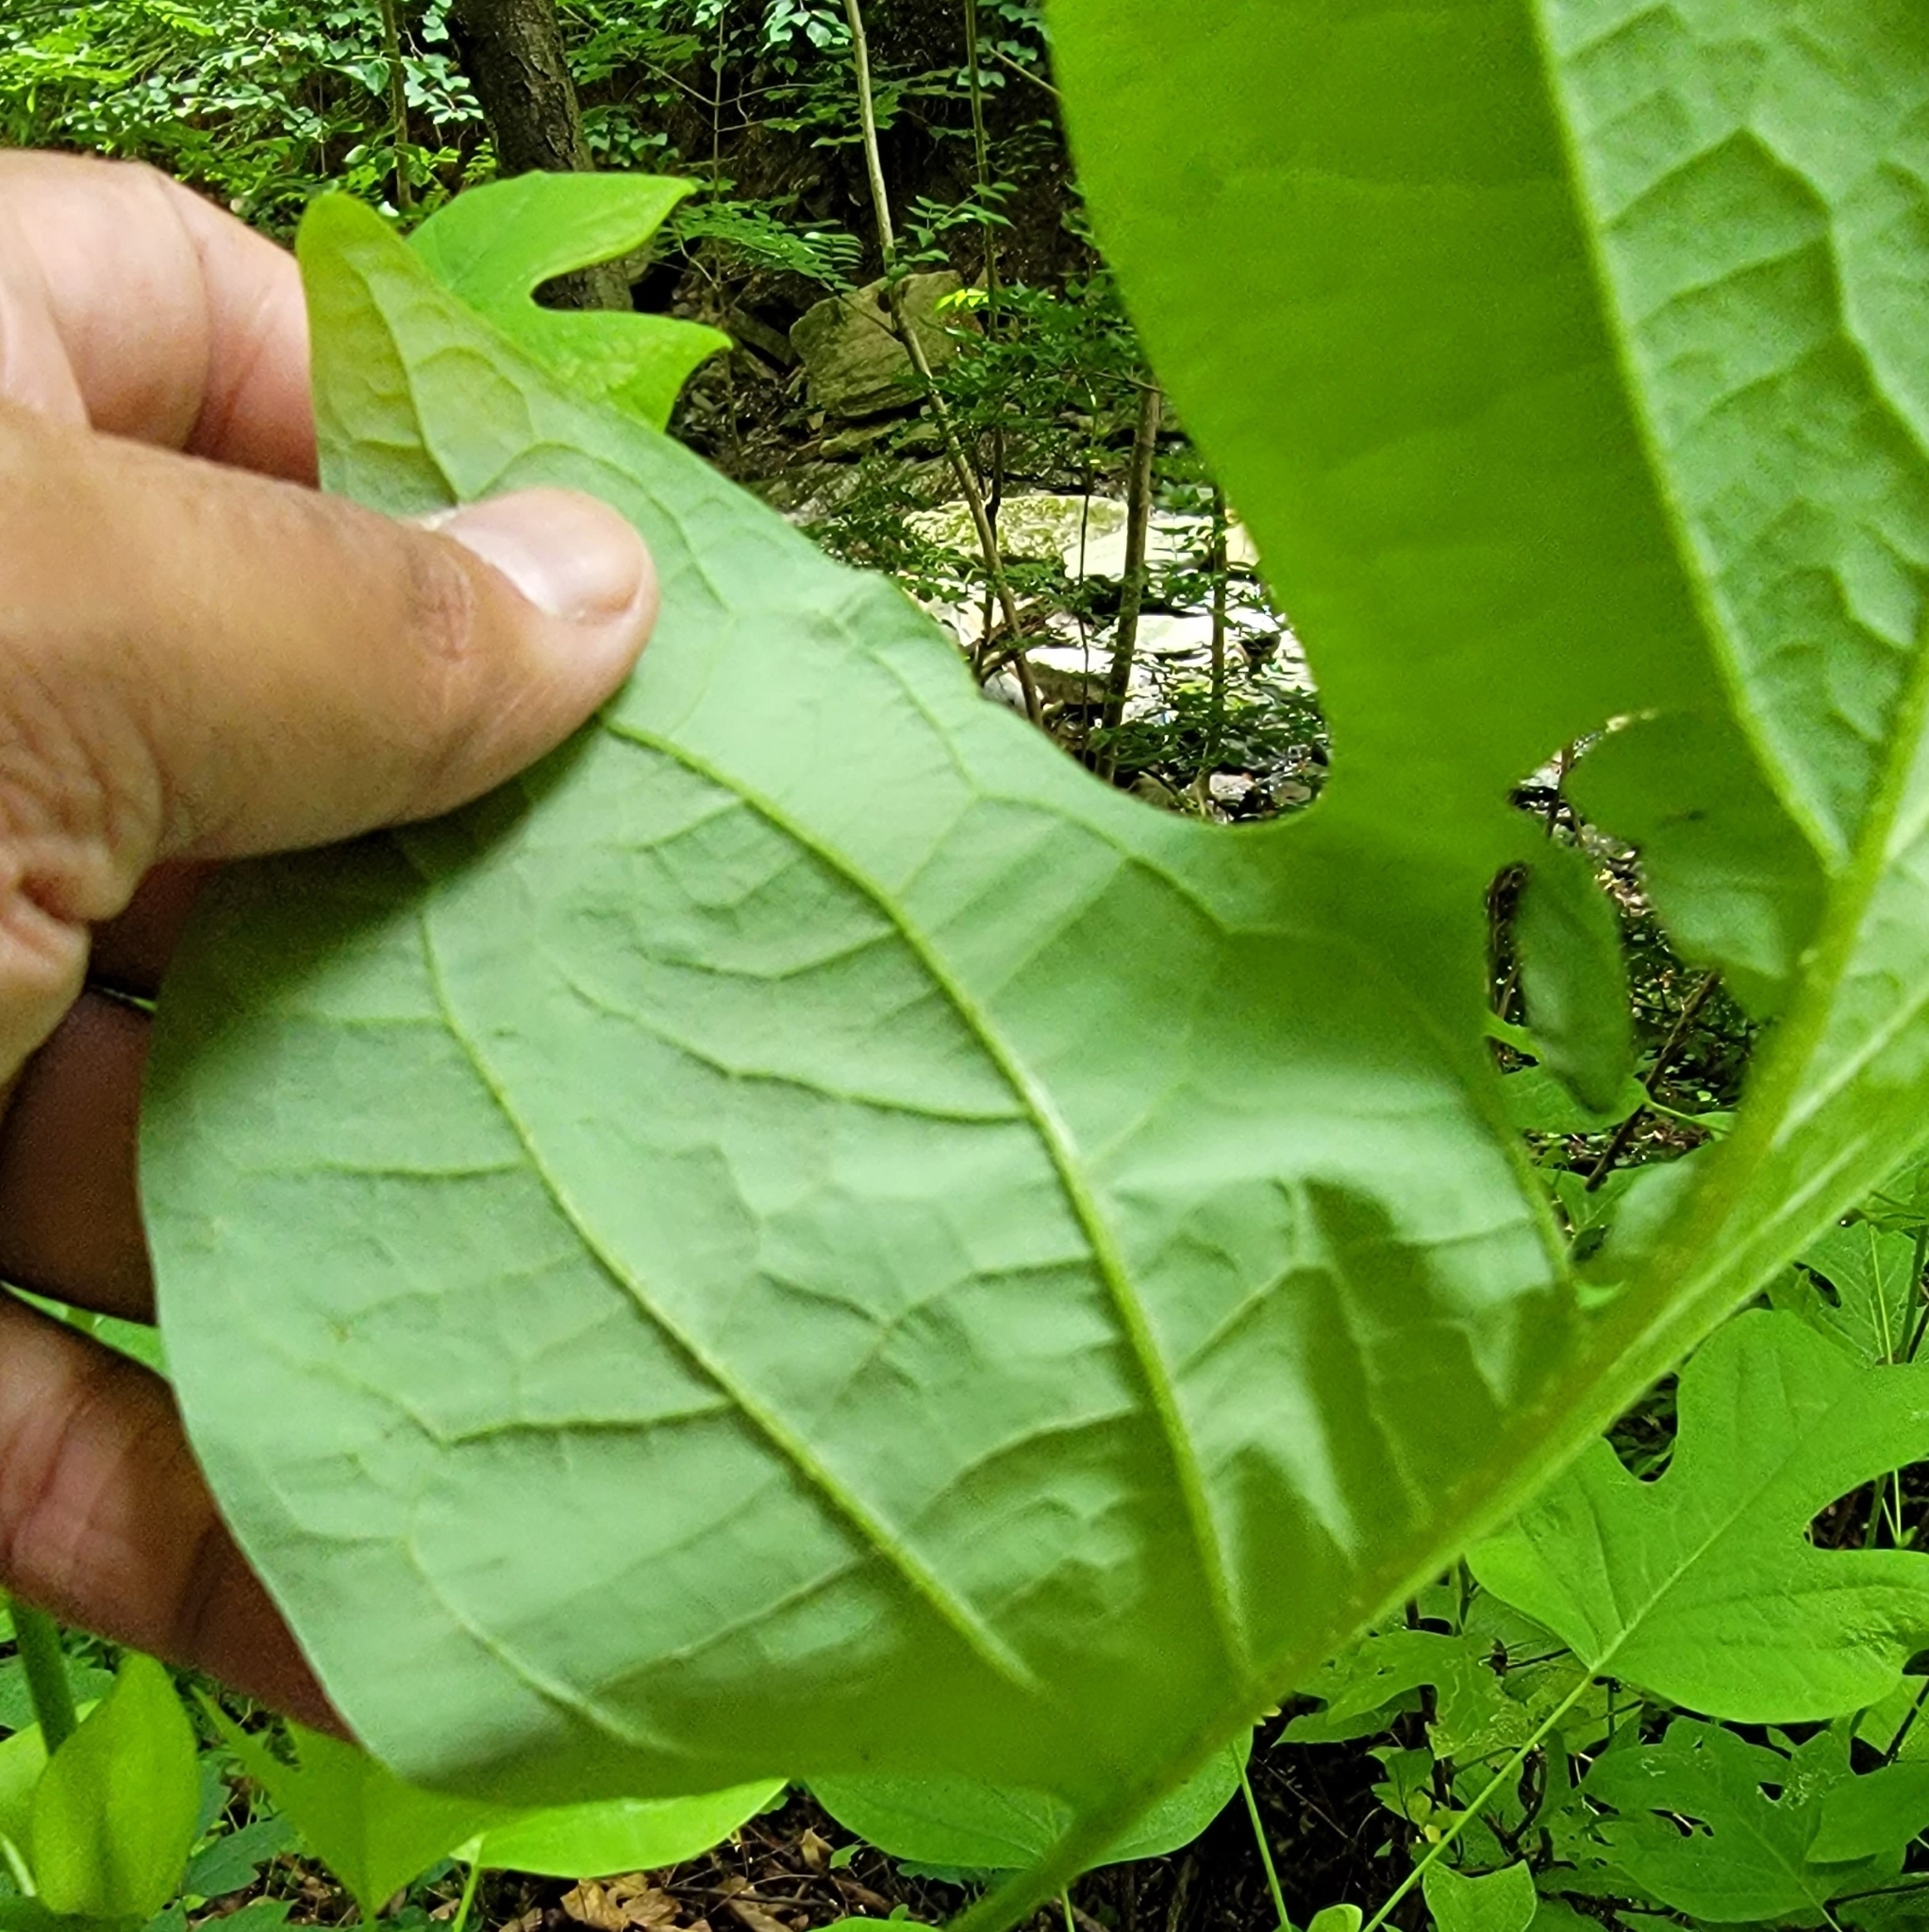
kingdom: Animalia
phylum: Arthropoda
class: Insecta
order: Lepidoptera
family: Gracillariidae
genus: Phyllocnistis
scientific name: Phyllocnistis liriodendronella
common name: Tulip tree leaf miner
